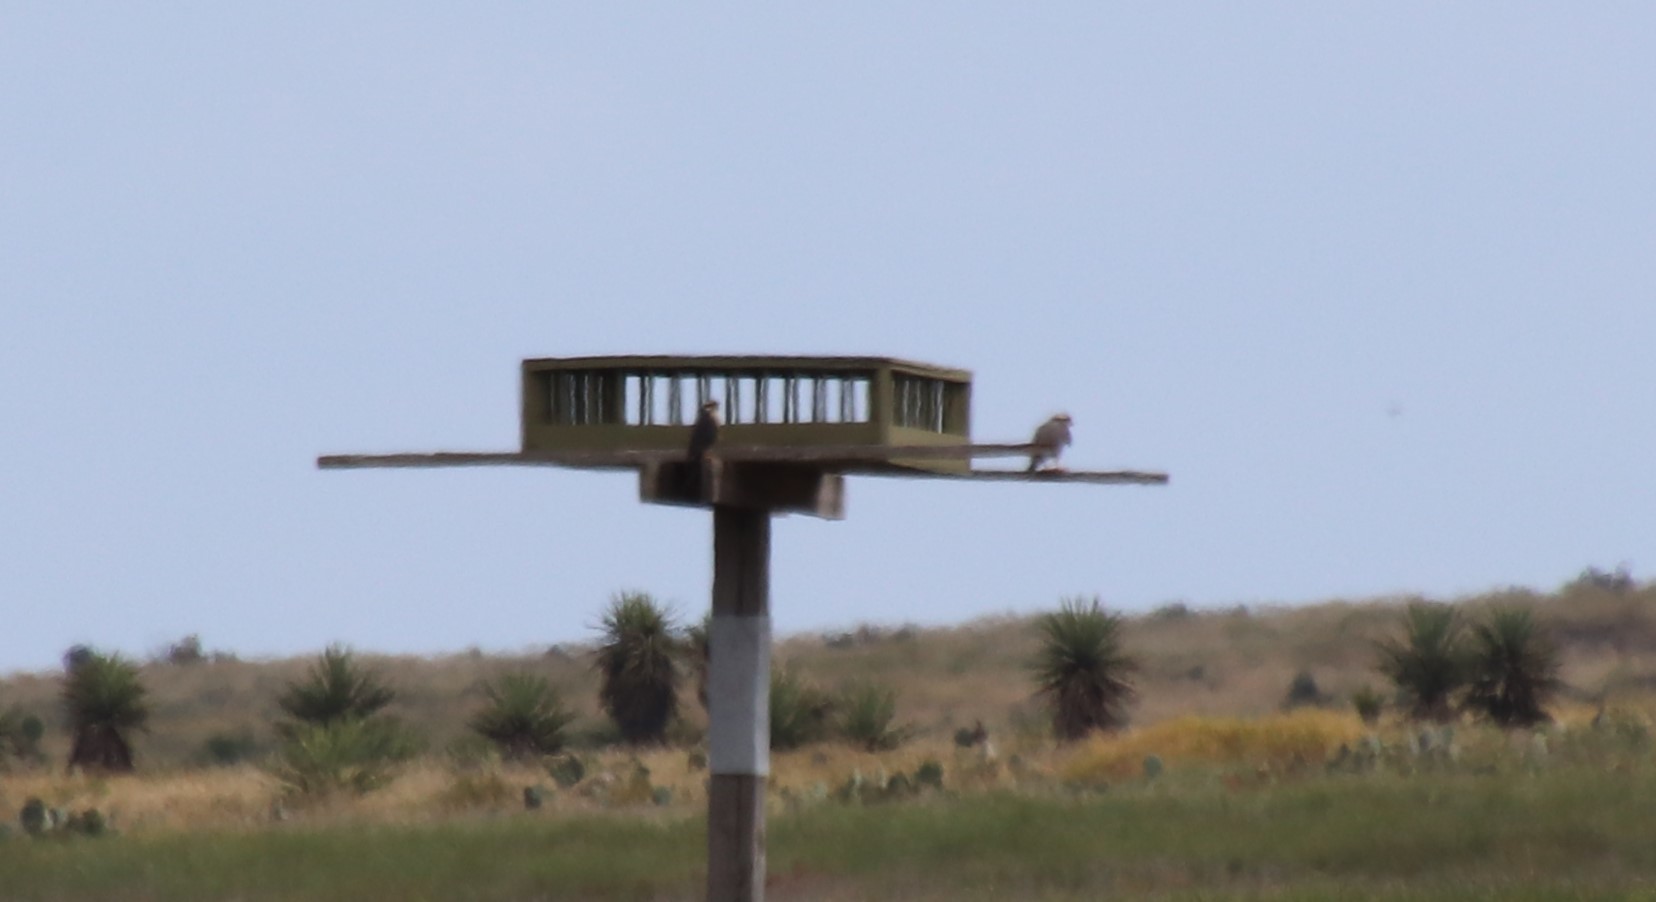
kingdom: Animalia
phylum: Chordata
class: Aves
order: Falconiformes
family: Falconidae
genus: Falco
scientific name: Falco femoralis
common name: Aplomado falcon
